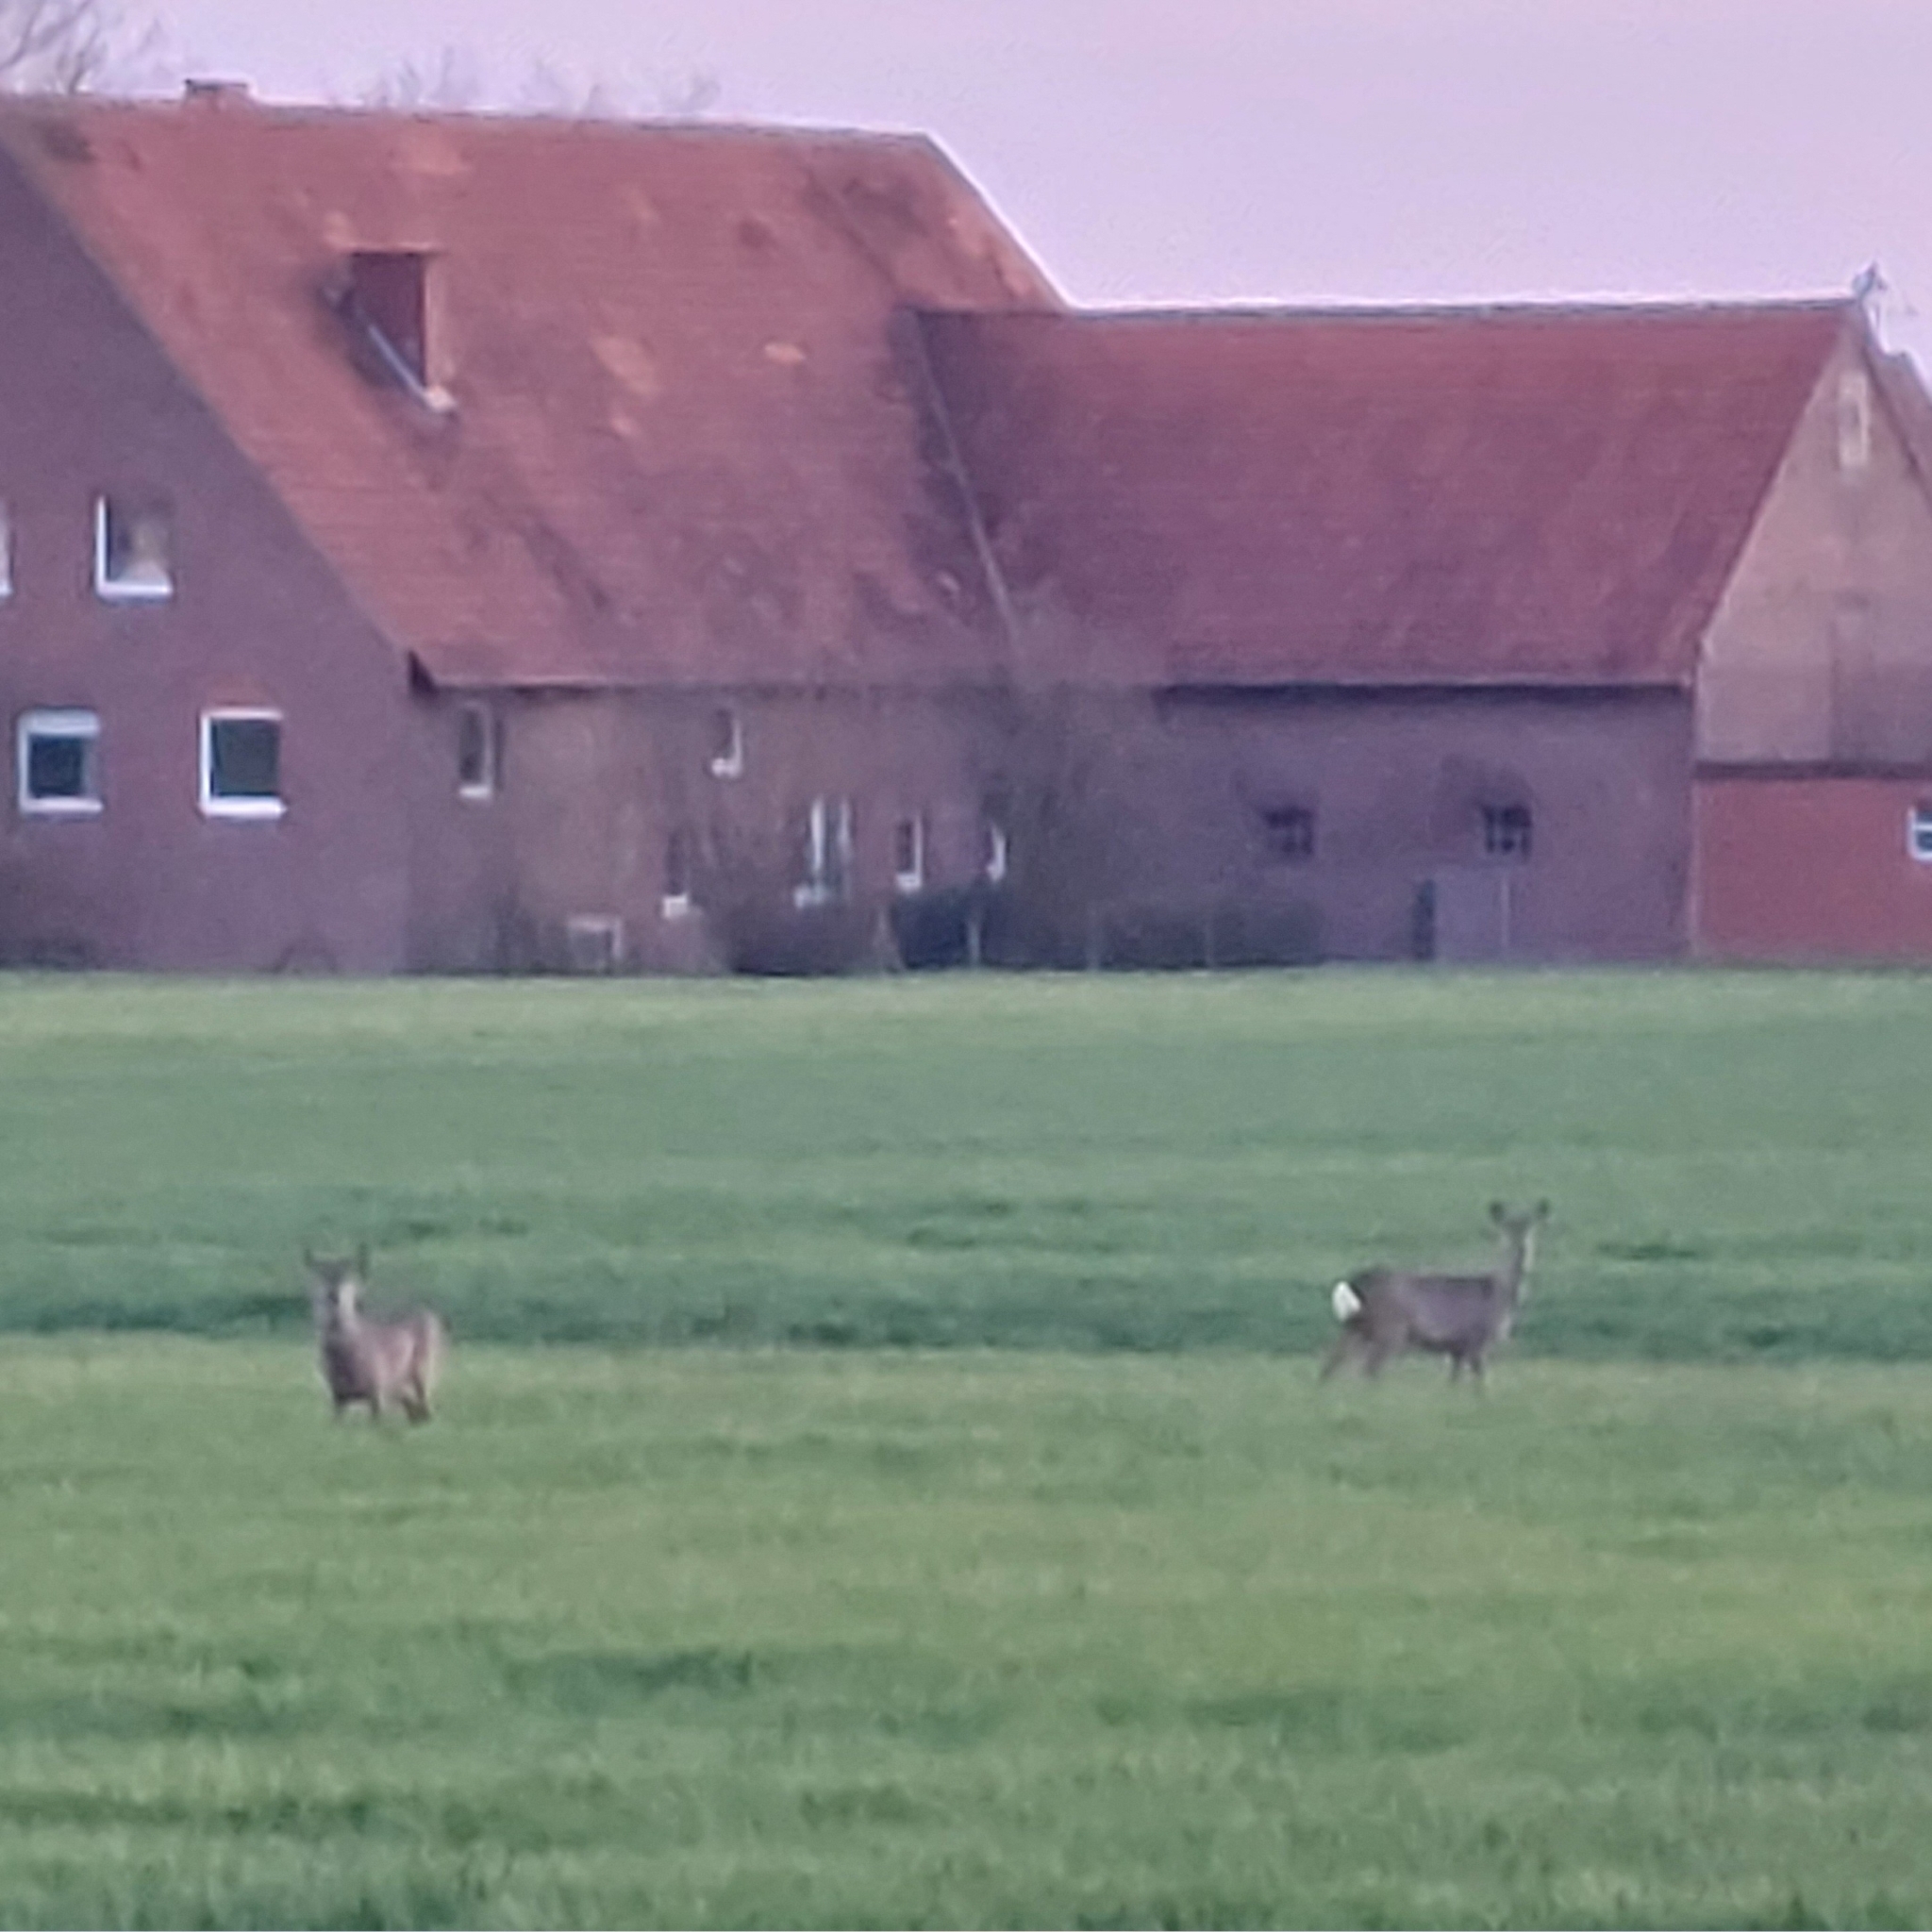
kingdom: Animalia
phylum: Chordata
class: Mammalia
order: Artiodactyla
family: Cervidae
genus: Capreolus
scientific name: Capreolus capreolus
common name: Western roe deer
